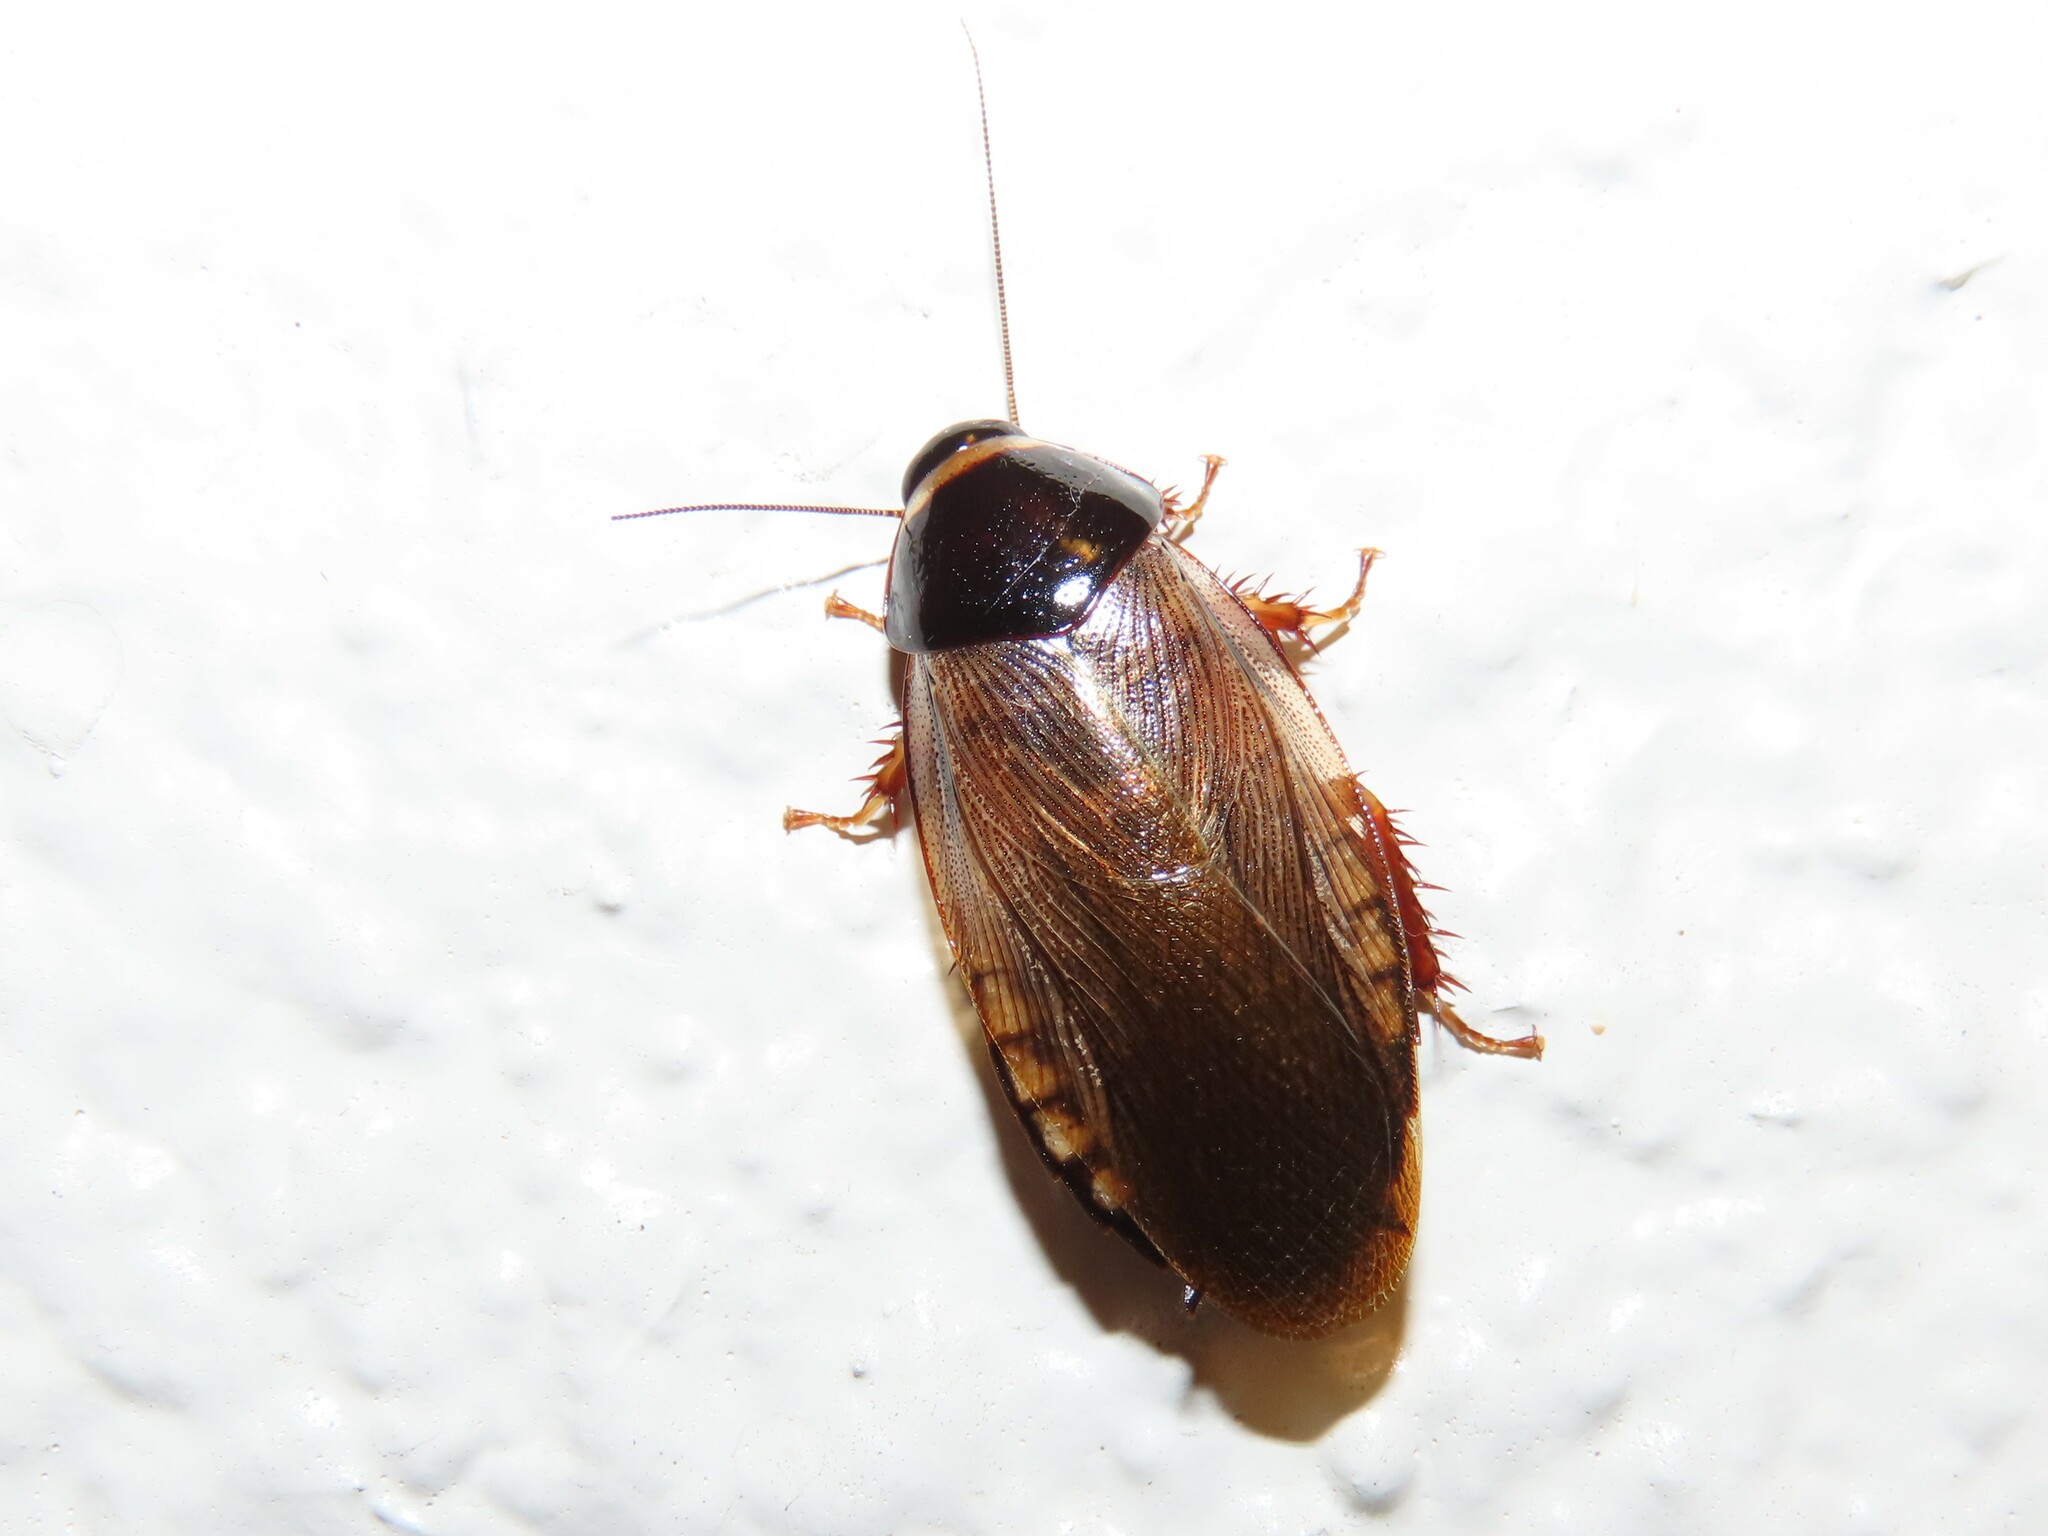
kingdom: Animalia
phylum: Arthropoda
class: Insecta
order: Blattodea
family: Blaberidae
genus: Pycnoscelus
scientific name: Pycnoscelus surinamensis
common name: Surinam cockroach
